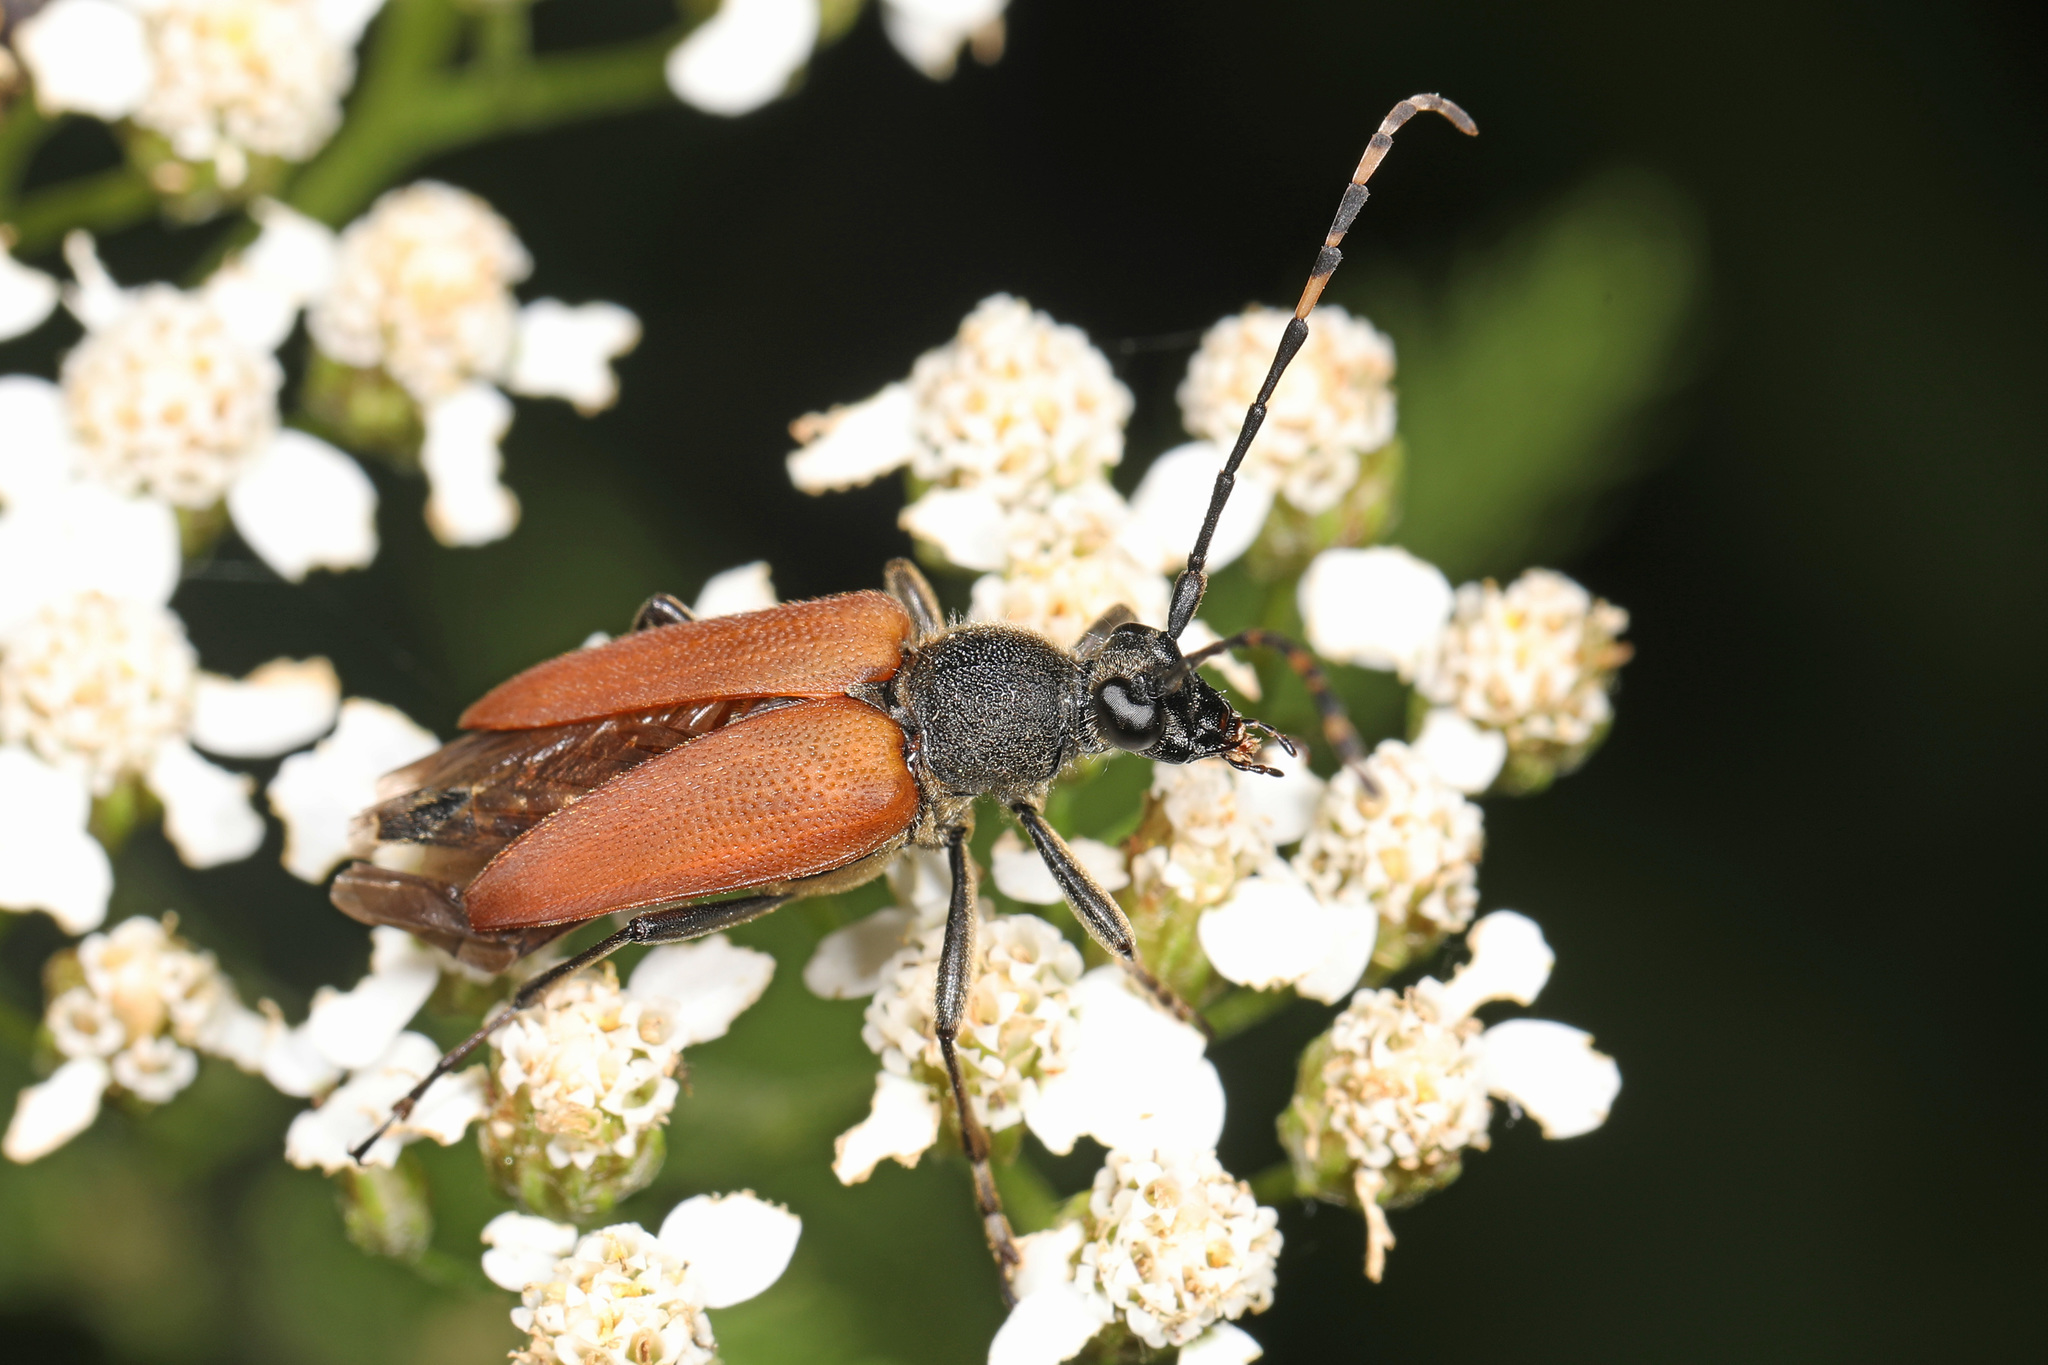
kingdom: Animalia
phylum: Arthropoda
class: Insecta
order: Coleoptera
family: Cerambycidae
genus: Brachyleptura
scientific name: Brachyleptura rubrica
